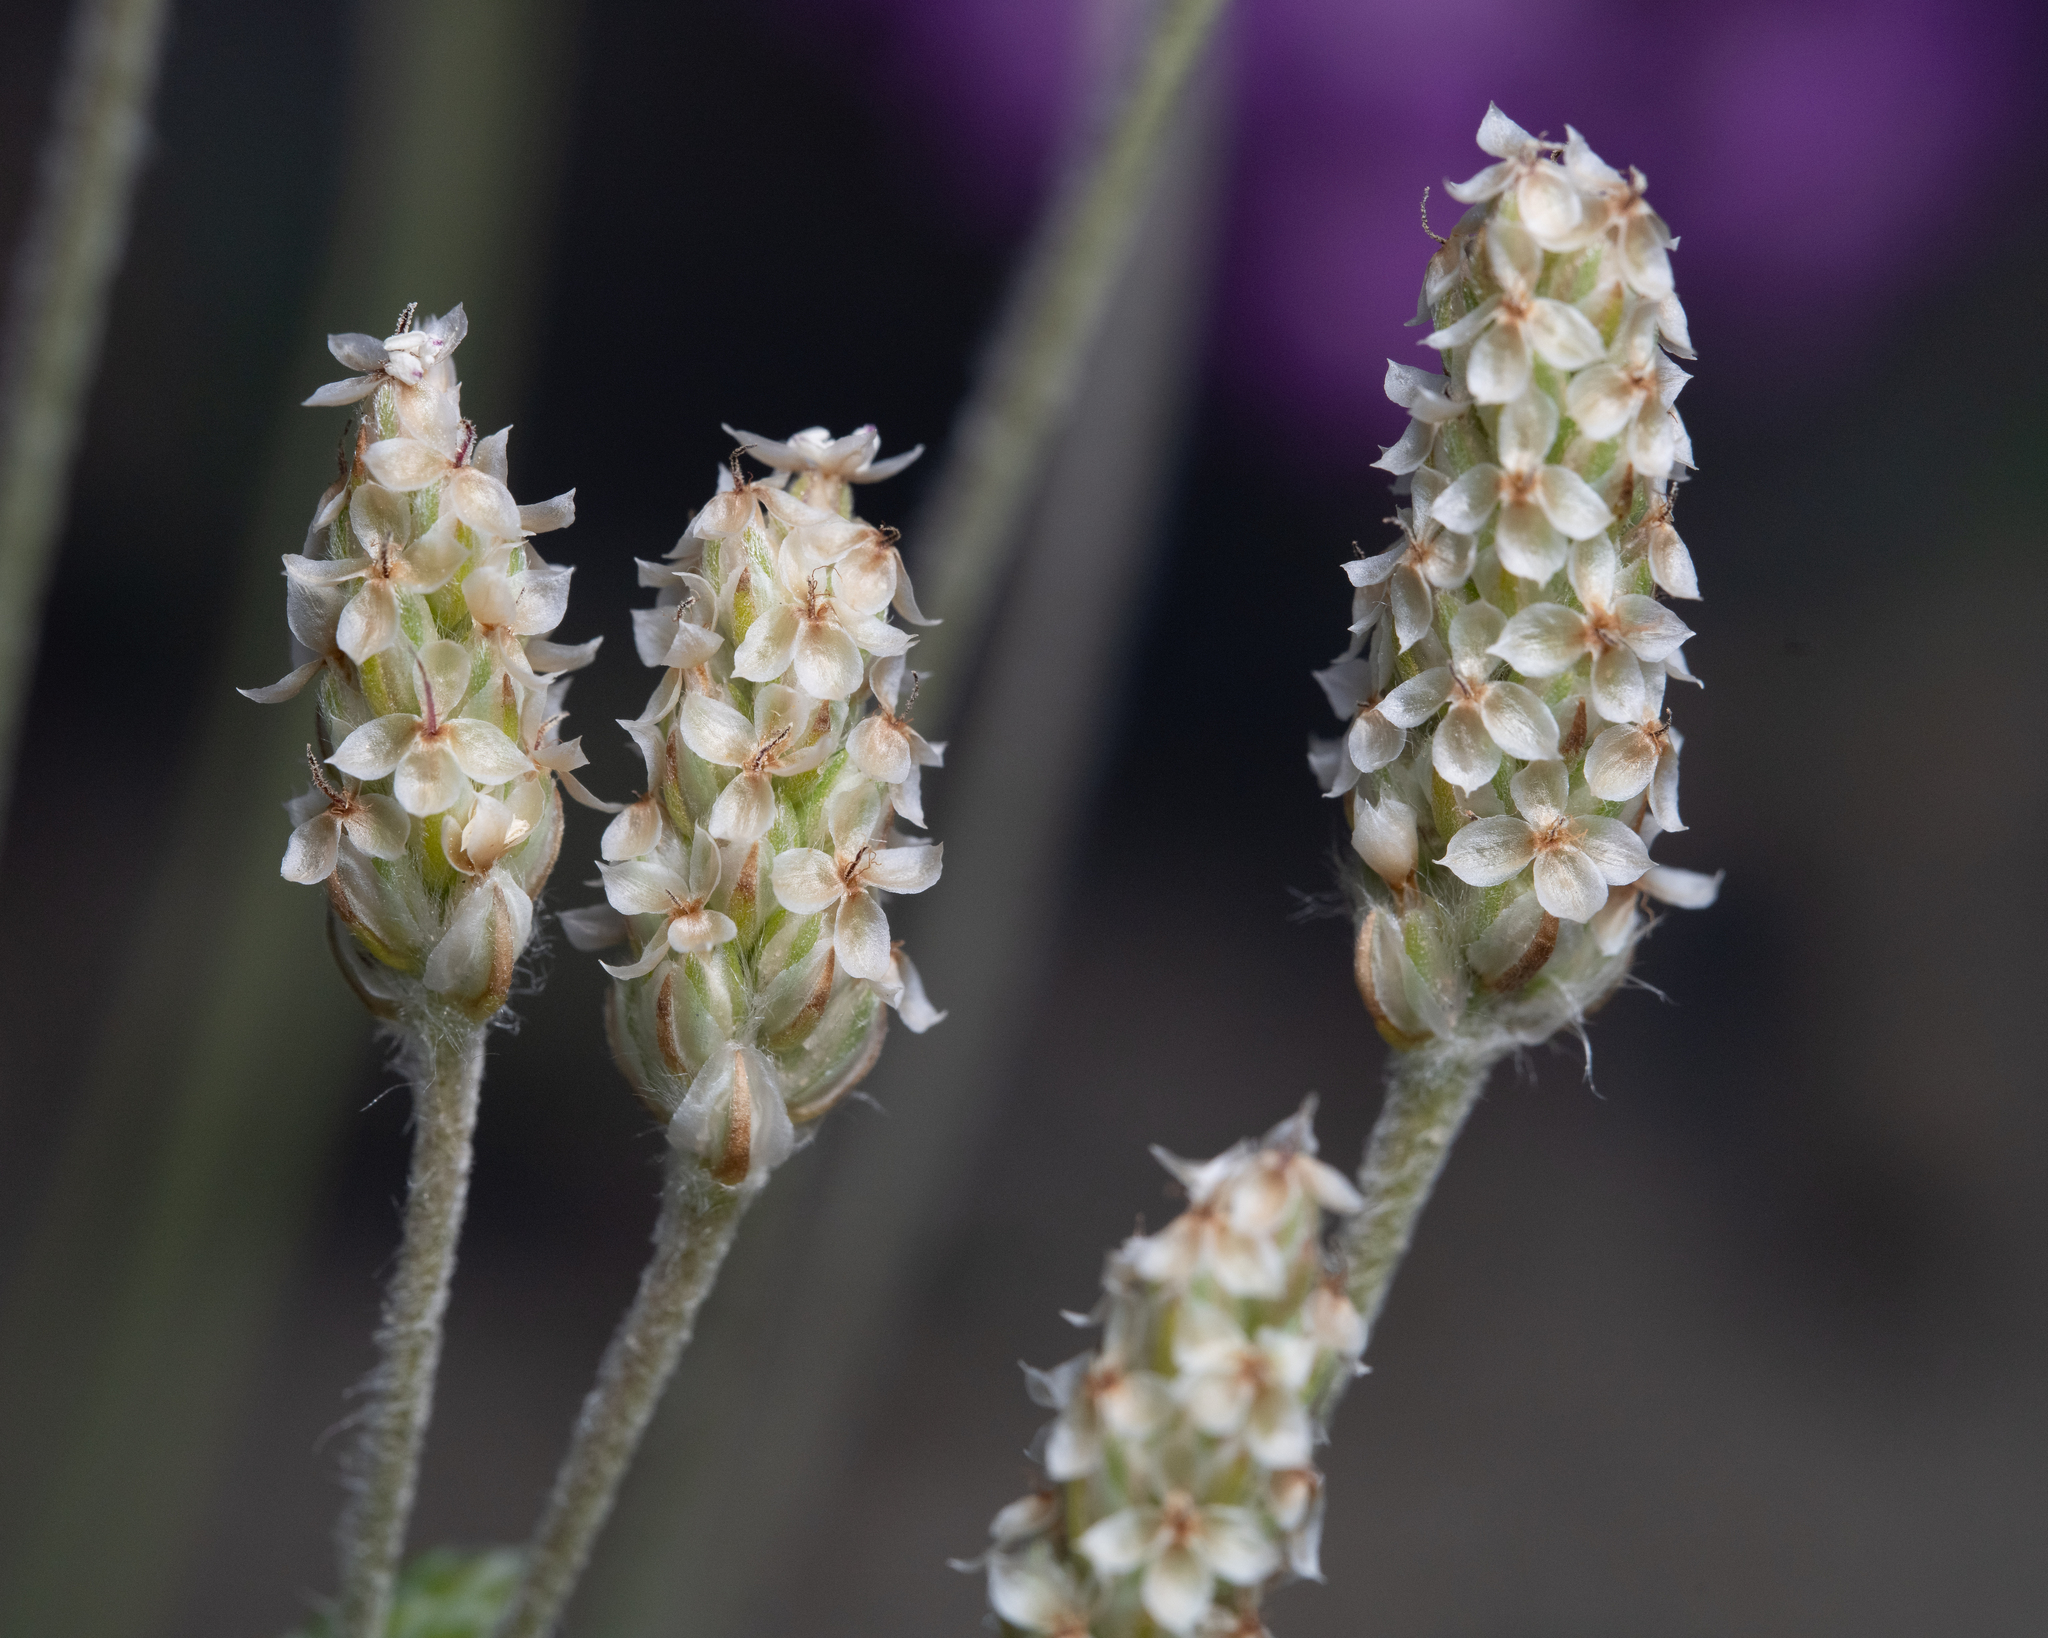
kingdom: Plantae
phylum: Tracheophyta
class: Magnoliopsida
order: Lamiales
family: Plantaginaceae
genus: Plantago
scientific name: Plantago ovata
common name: Blond plantain
